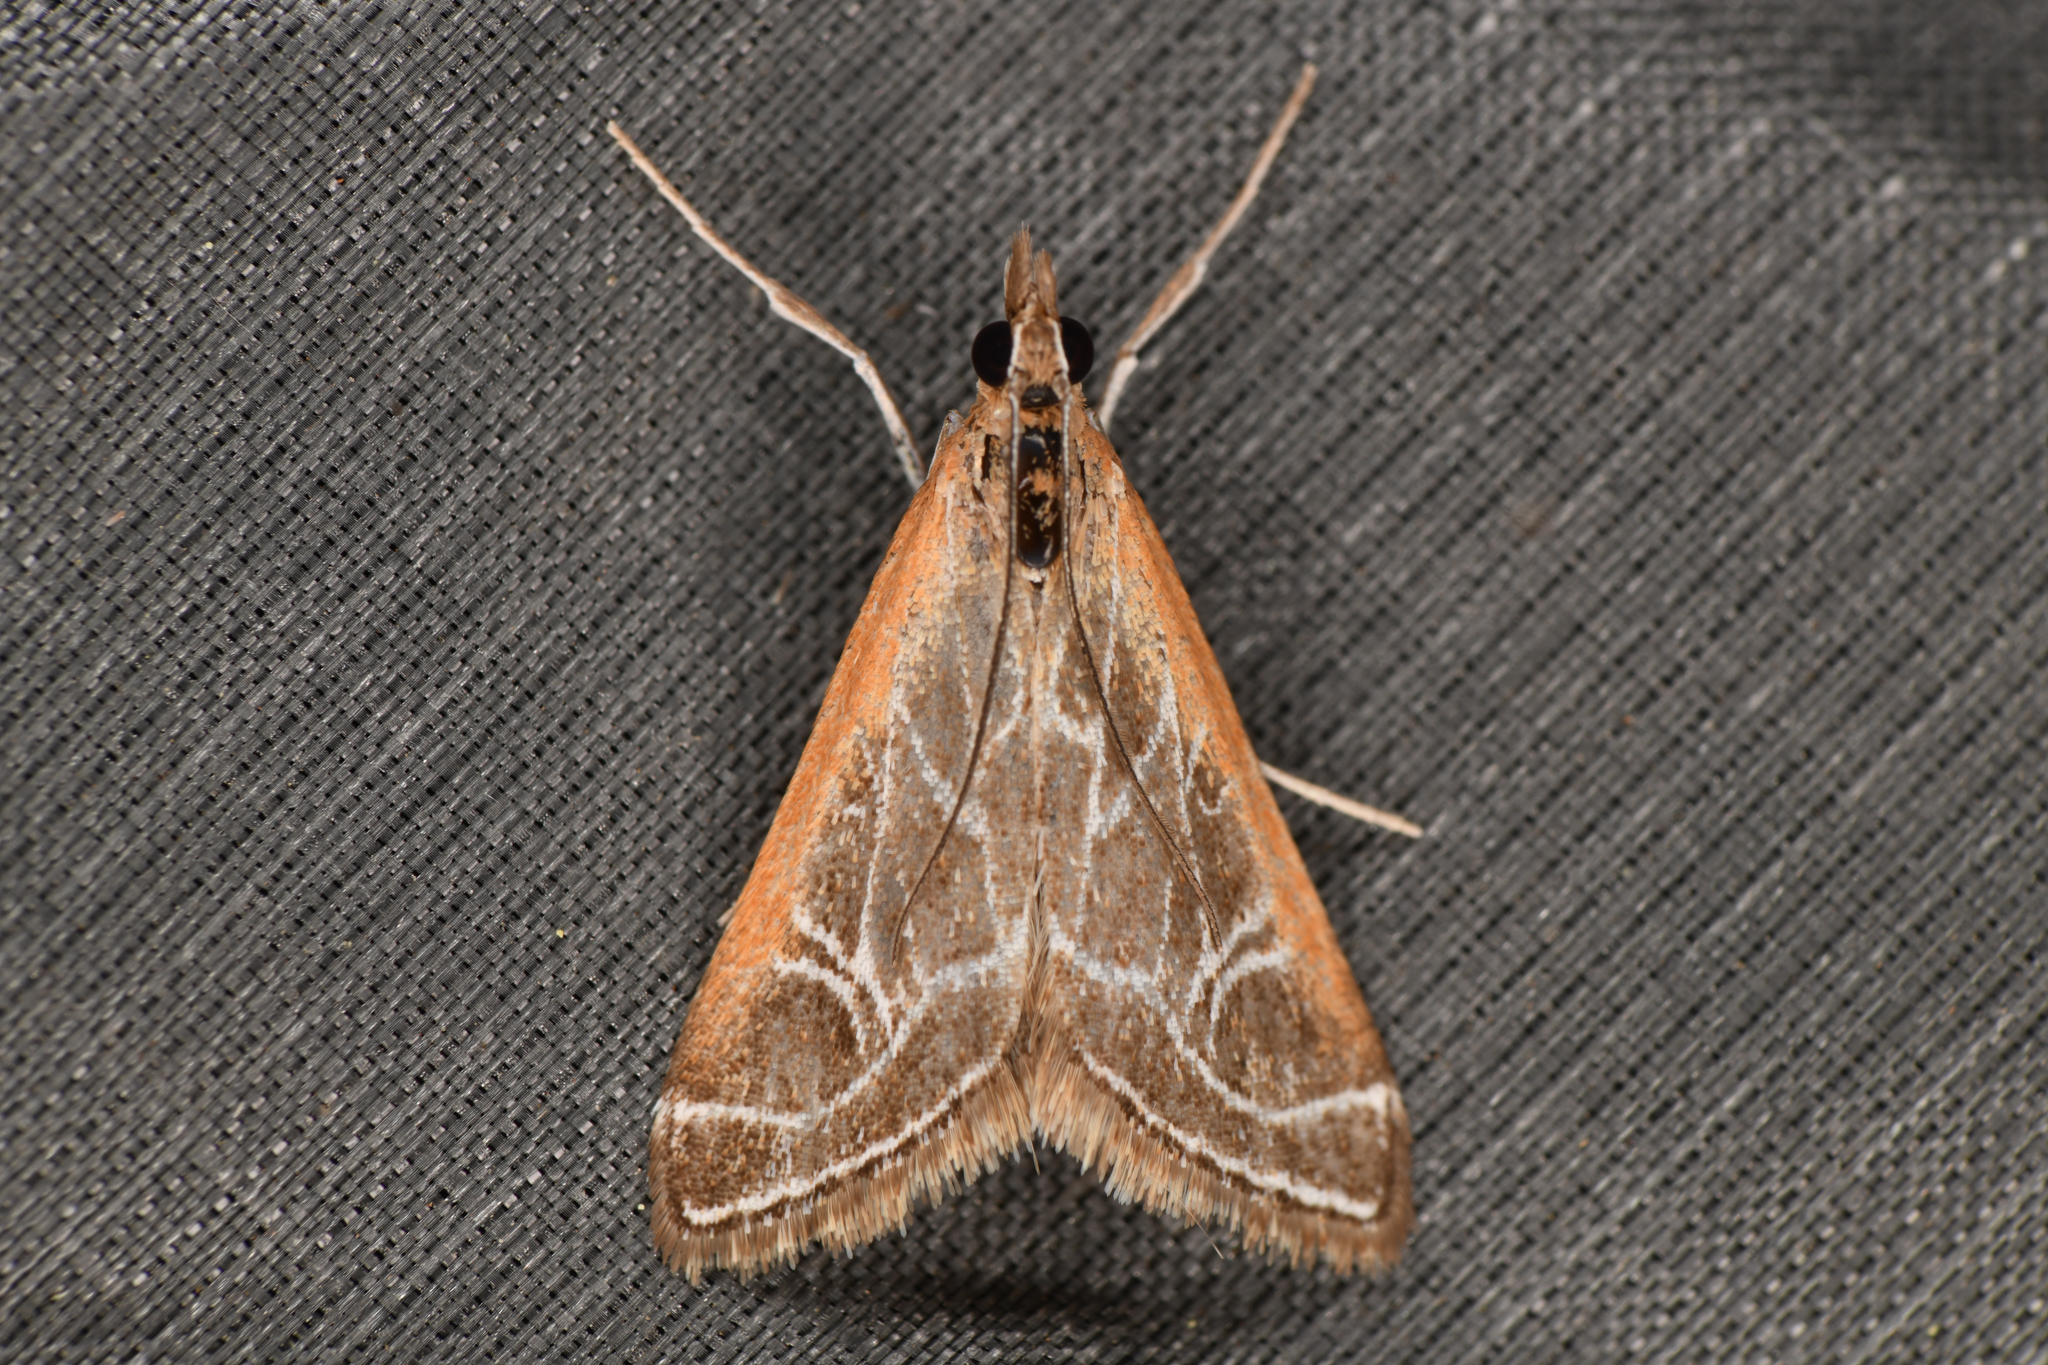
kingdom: Animalia
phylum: Arthropoda
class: Insecta
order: Lepidoptera
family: Crambidae
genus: Pyrausta
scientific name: Pyrausta nexalis
